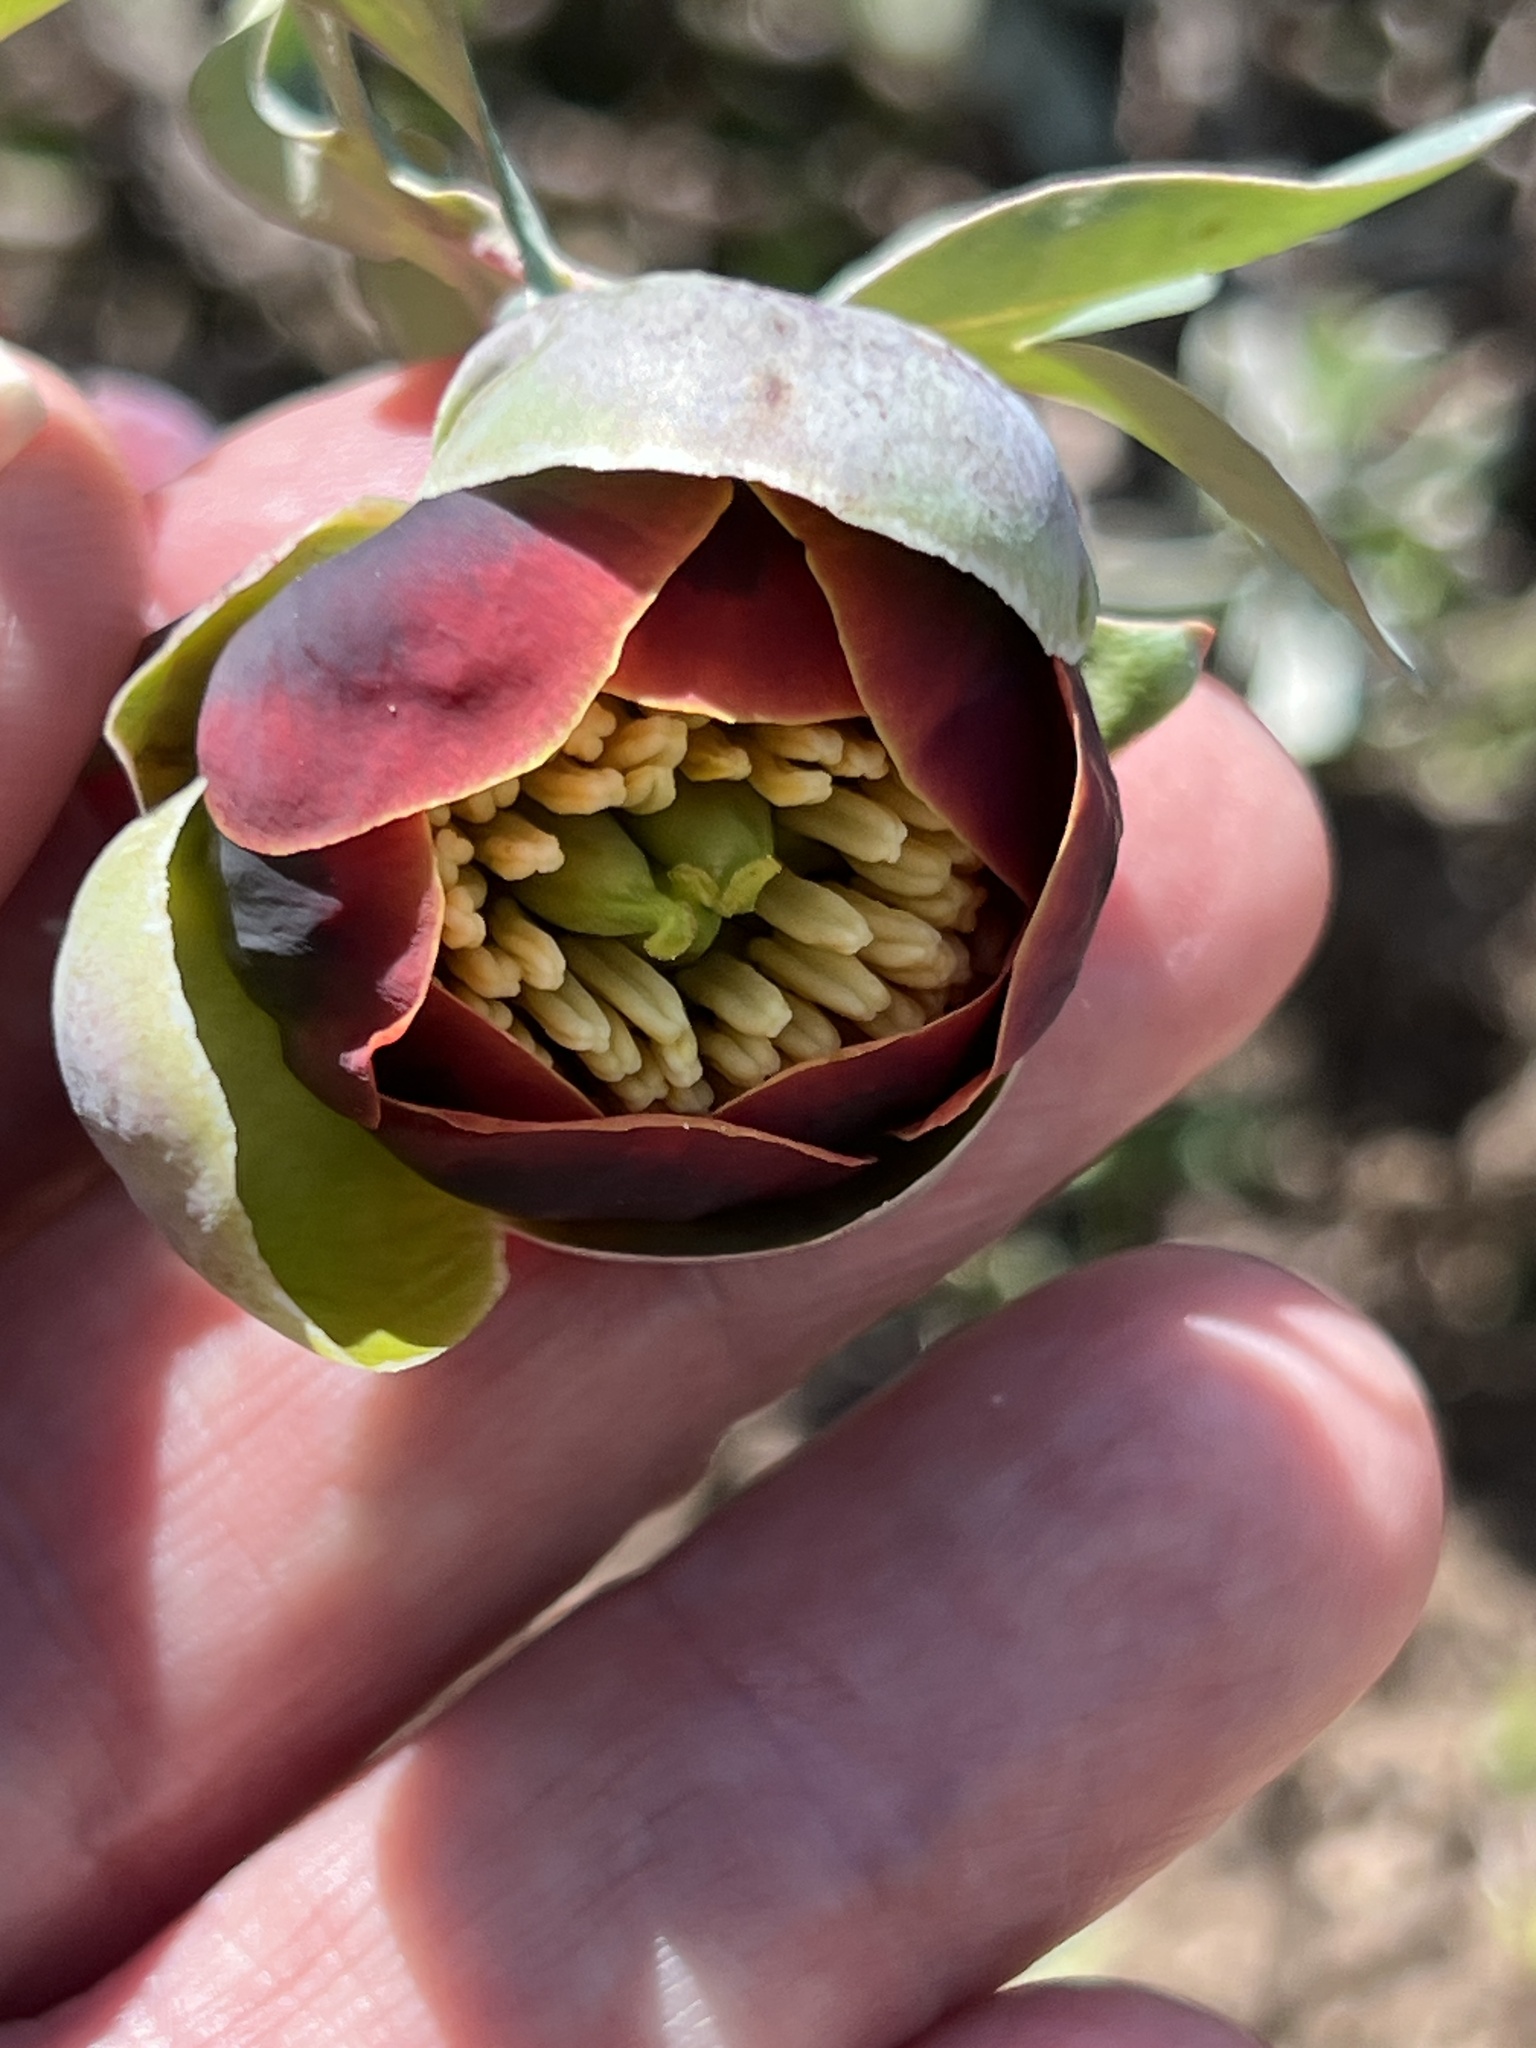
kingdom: Plantae
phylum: Tracheophyta
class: Magnoliopsida
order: Saxifragales
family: Paeoniaceae
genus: Paeonia
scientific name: Paeonia brownii
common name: Brown's peony
